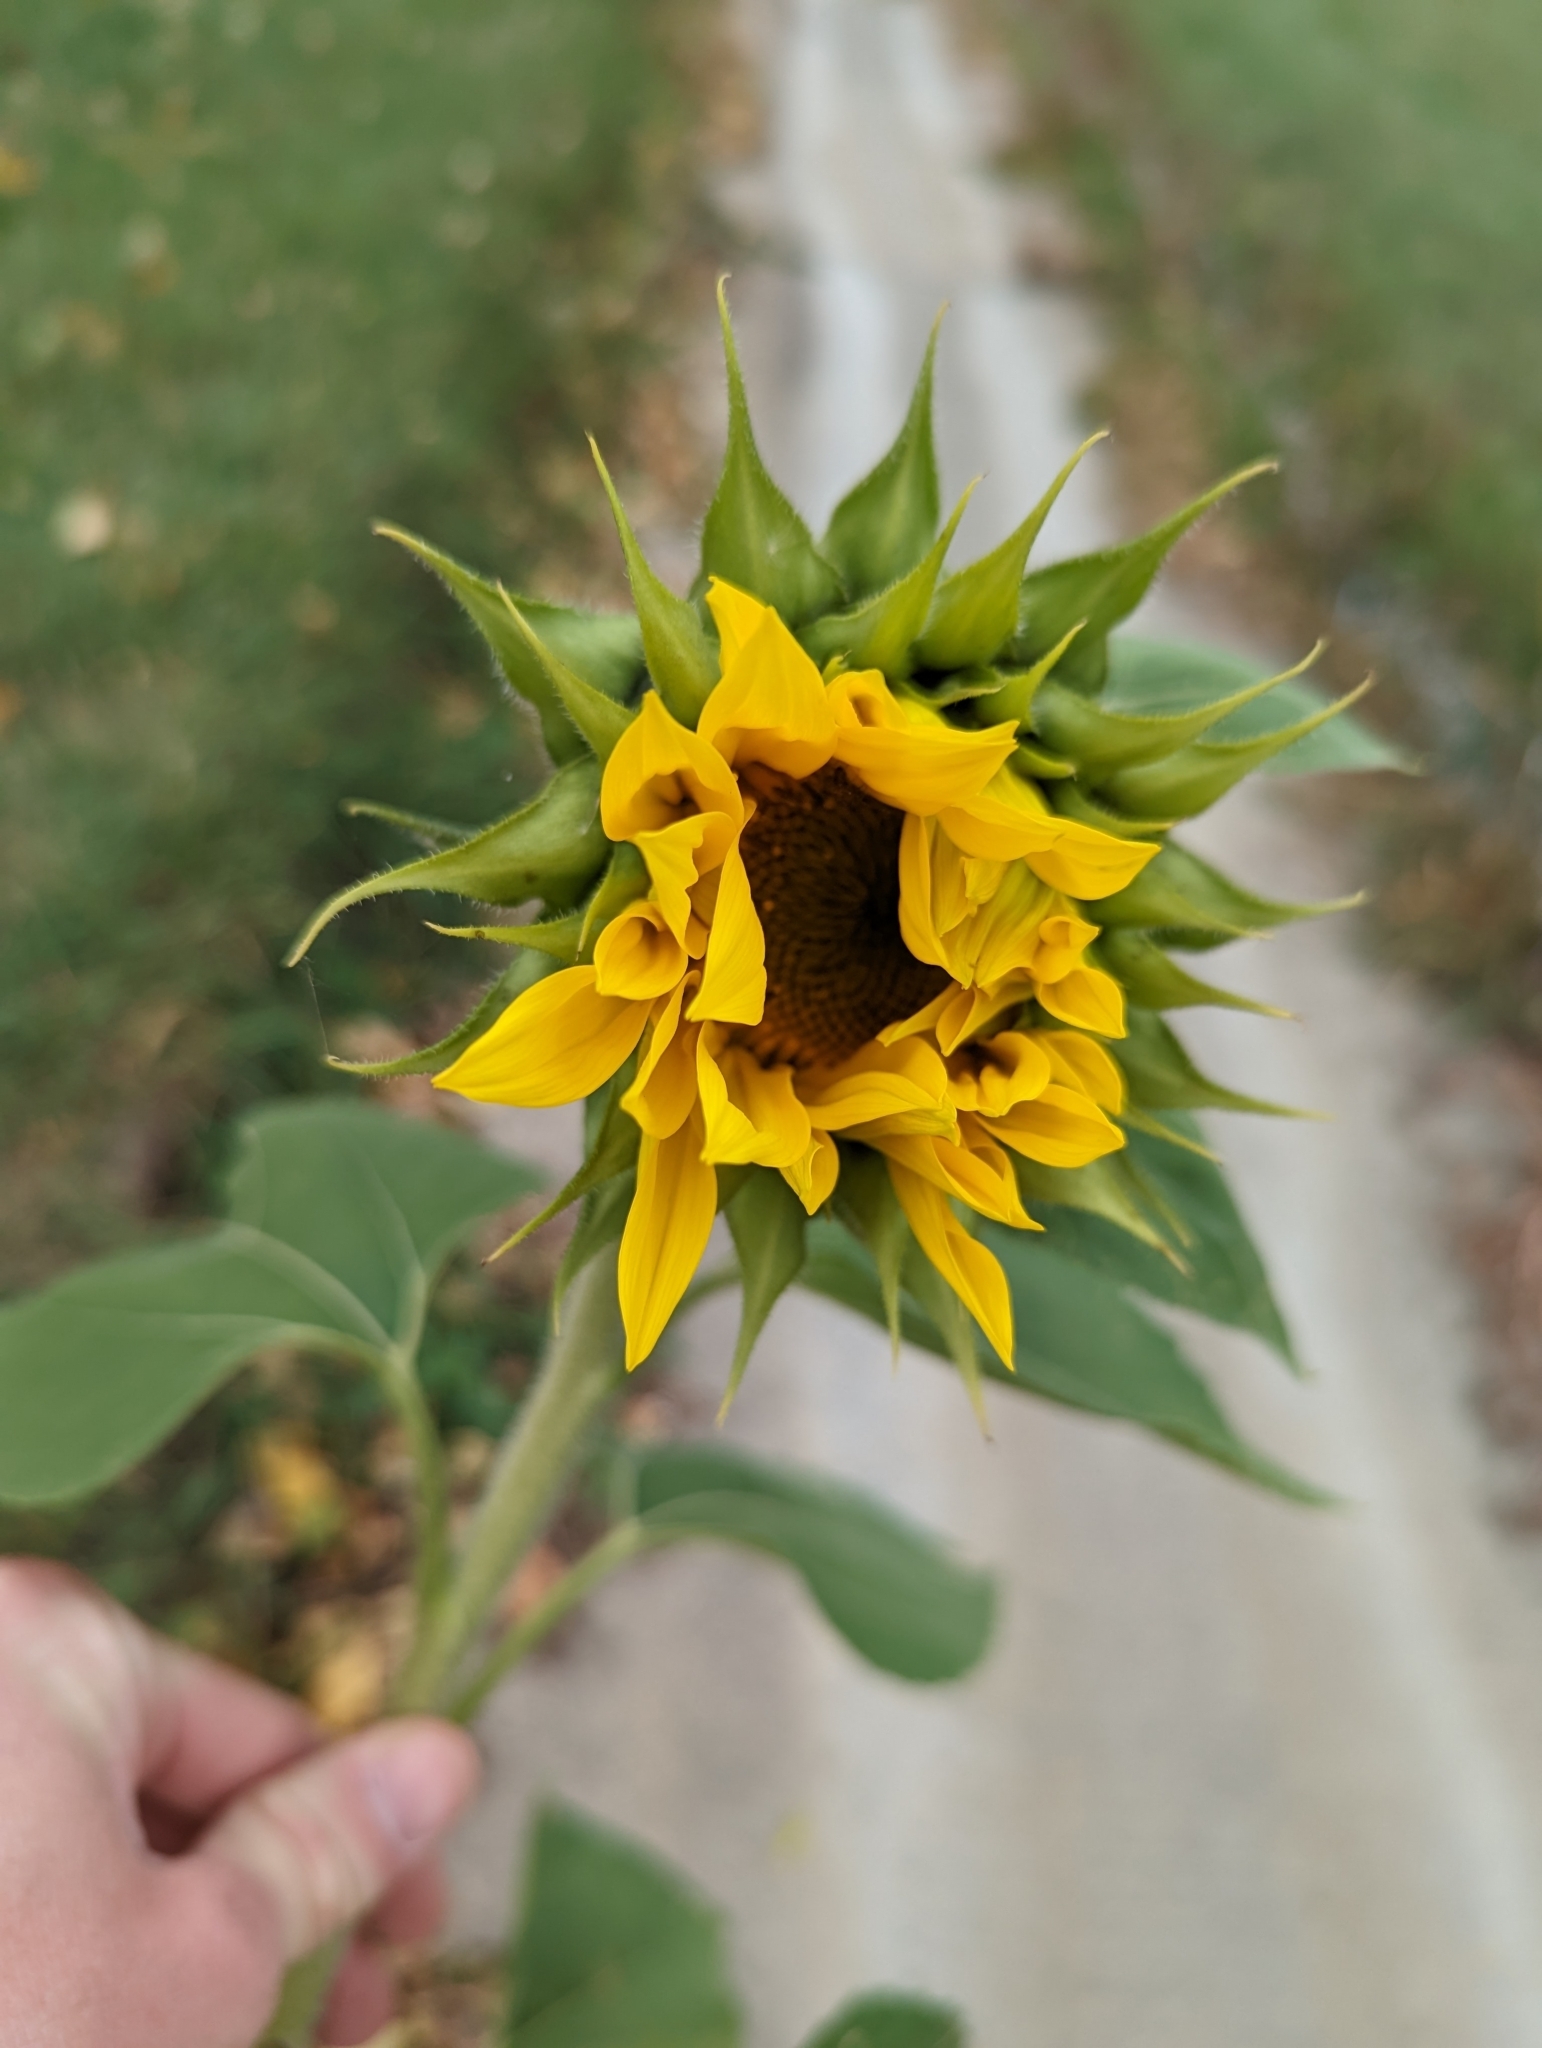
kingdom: Plantae
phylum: Tracheophyta
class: Magnoliopsida
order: Asterales
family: Asteraceae
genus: Helianthus
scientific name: Helianthus annuus
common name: Sunflower
